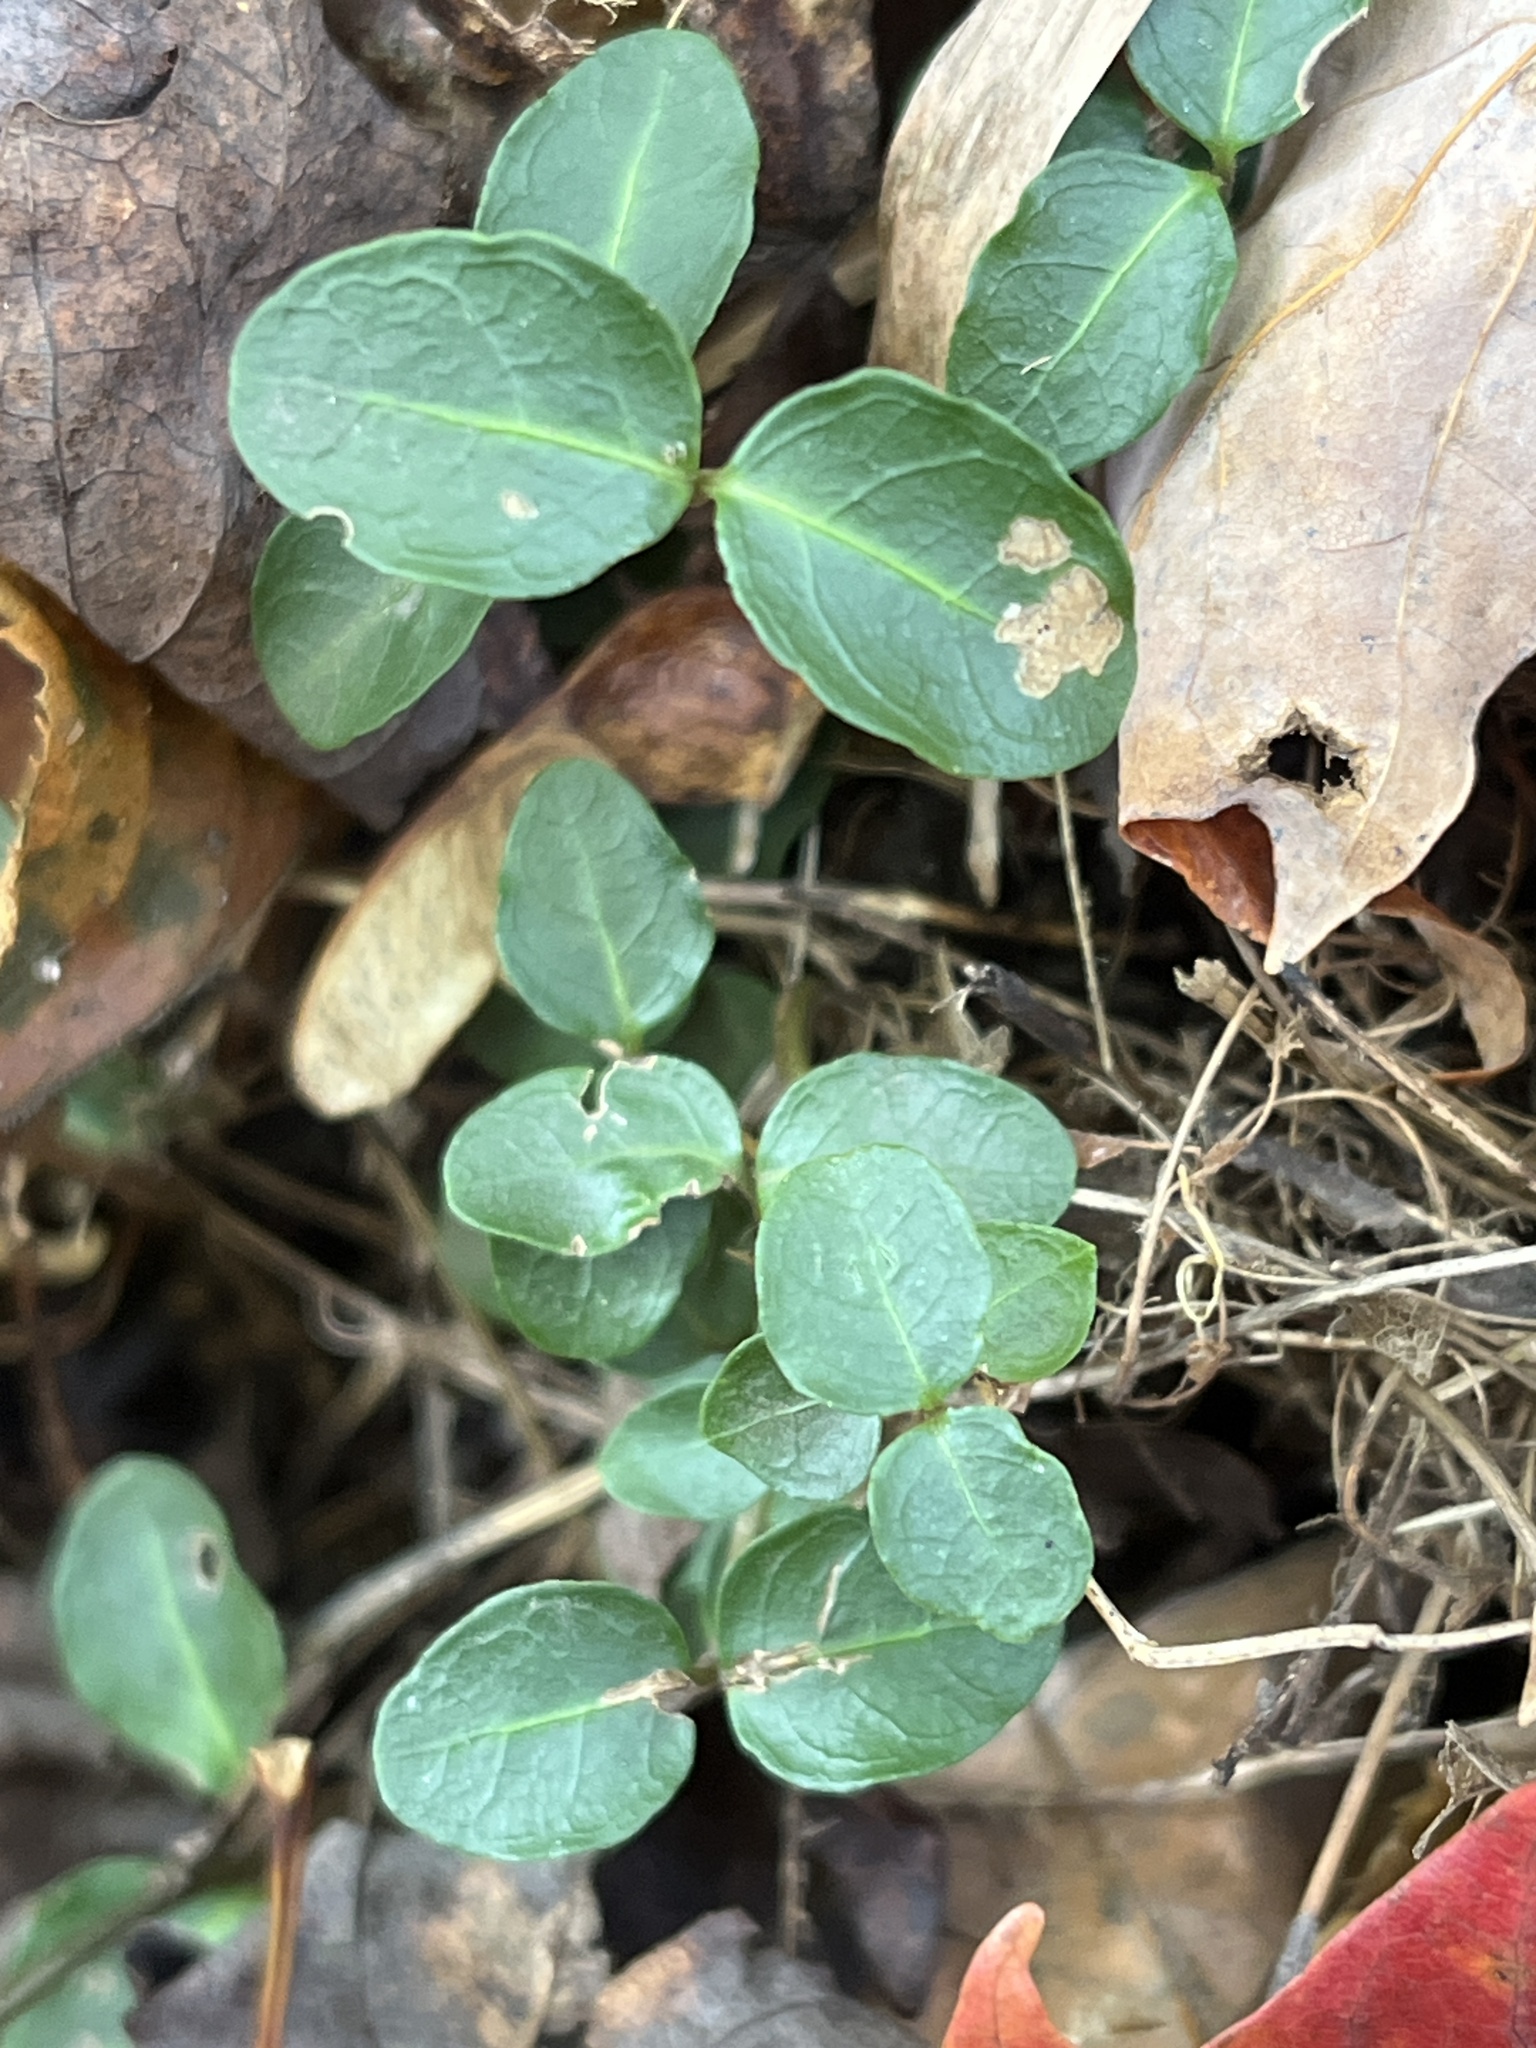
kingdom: Plantae
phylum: Tracheophyta
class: Magnoliopsida
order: Gentianales
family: Rubiaceae
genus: Mitchella
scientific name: Mitchella repens
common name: Partridge-berry
